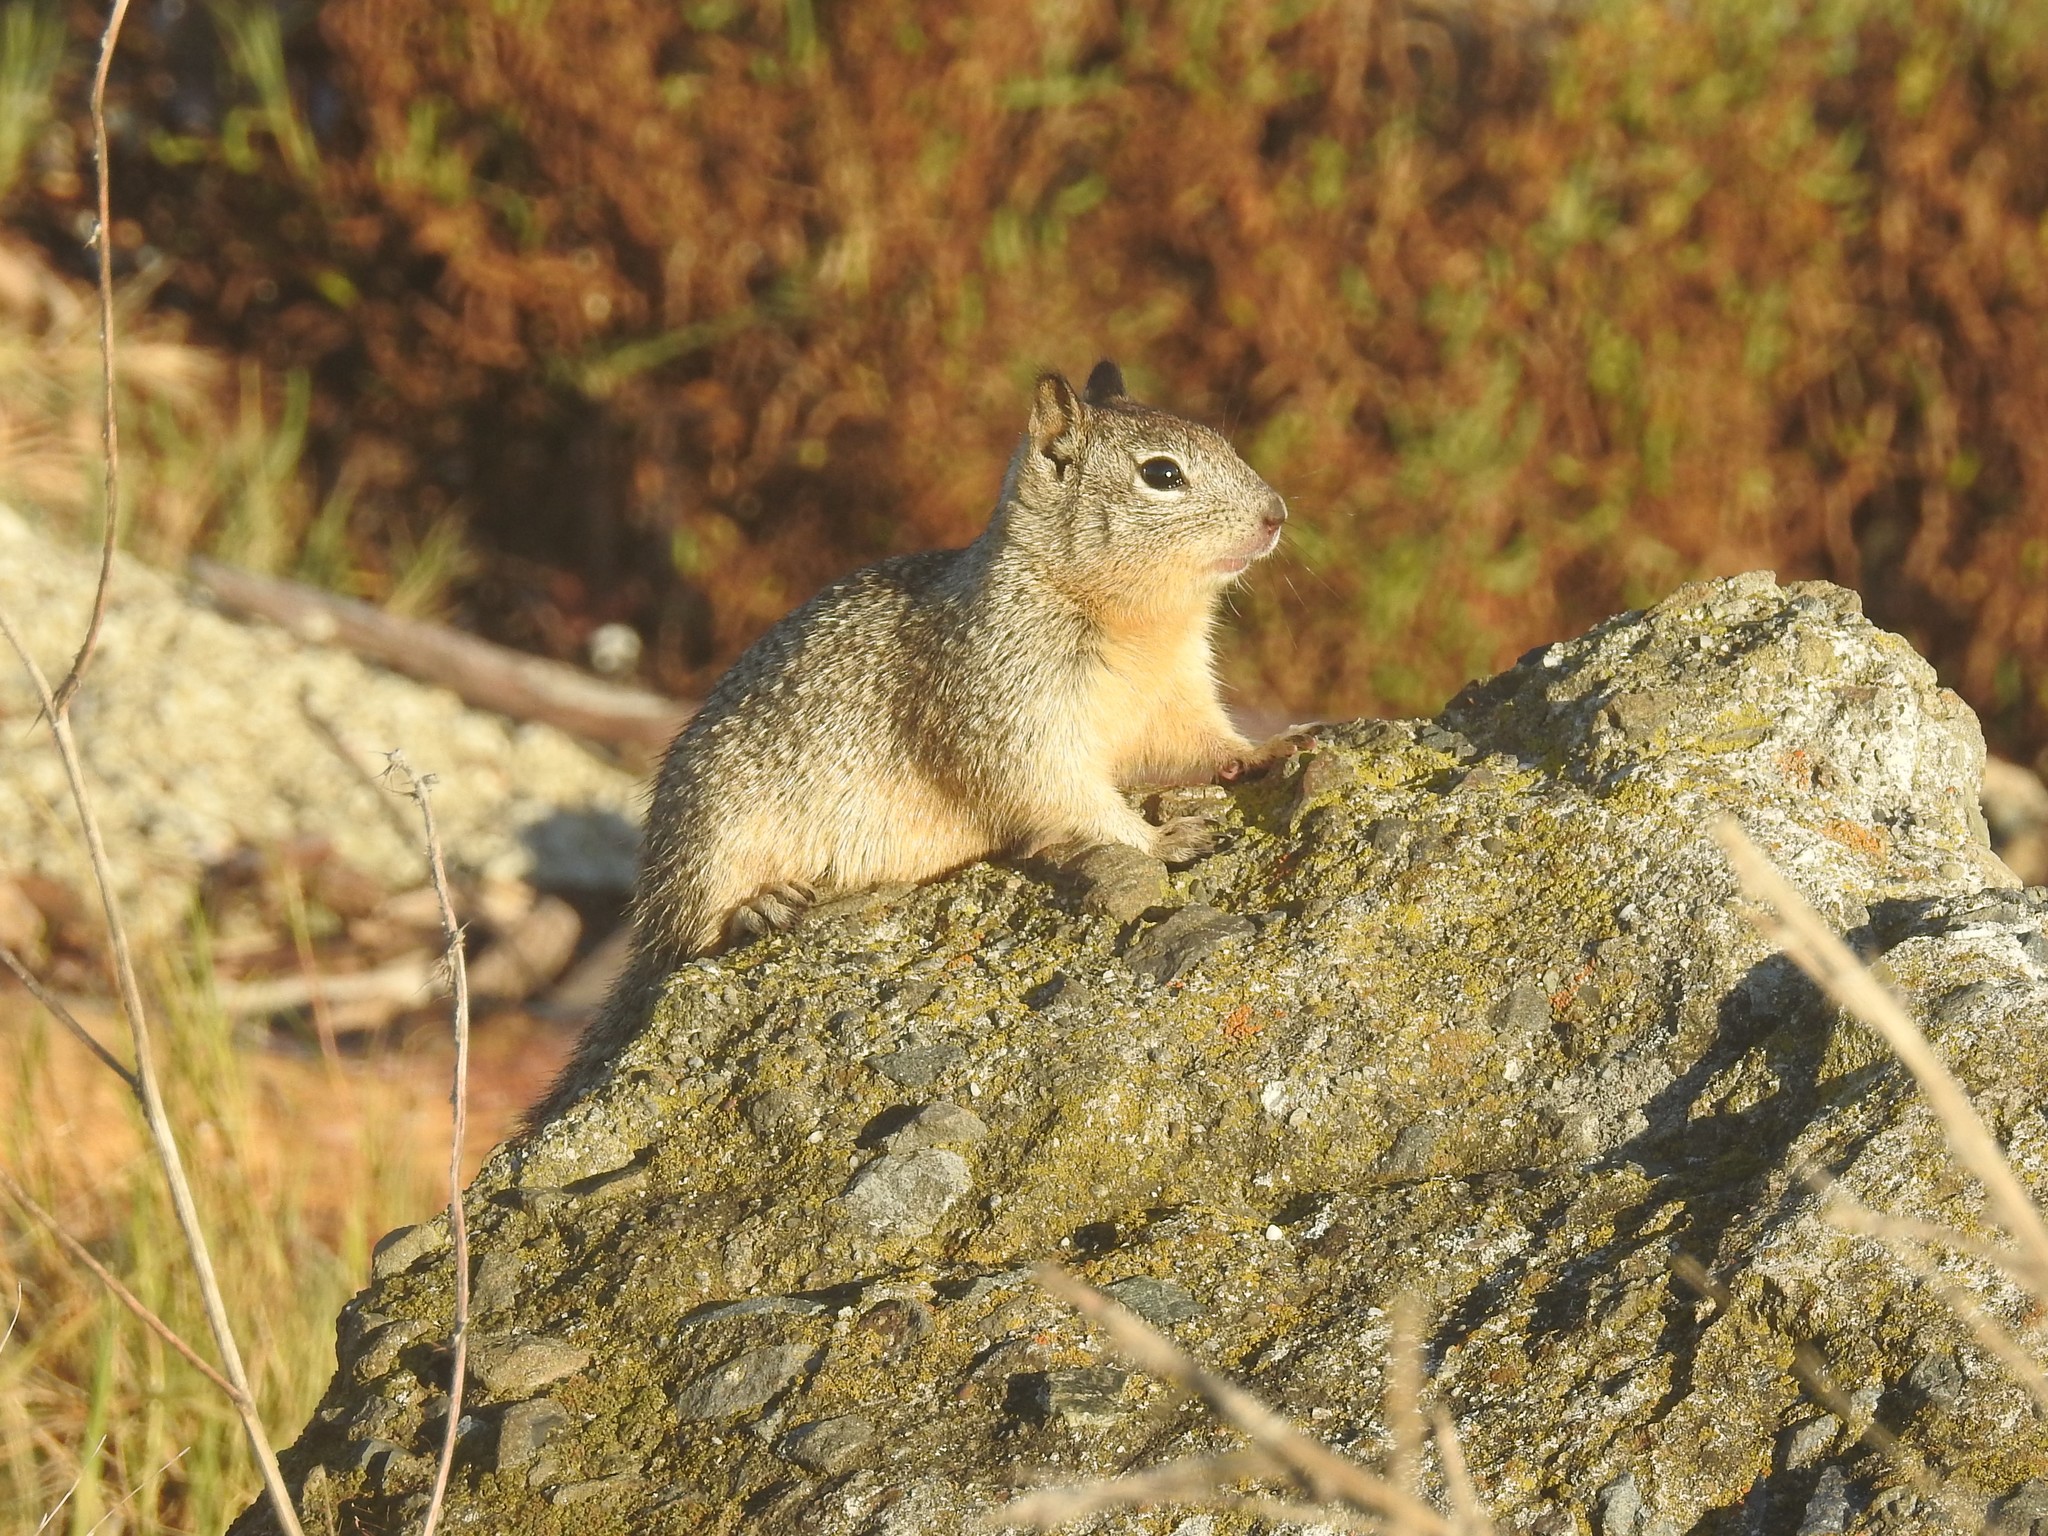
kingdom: Animalia
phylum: Chordata
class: Mammalia
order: Rodentia
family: Sciuridae
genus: Otospermophilus
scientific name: Otospermophilus beecheyi
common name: California ground squirrel
